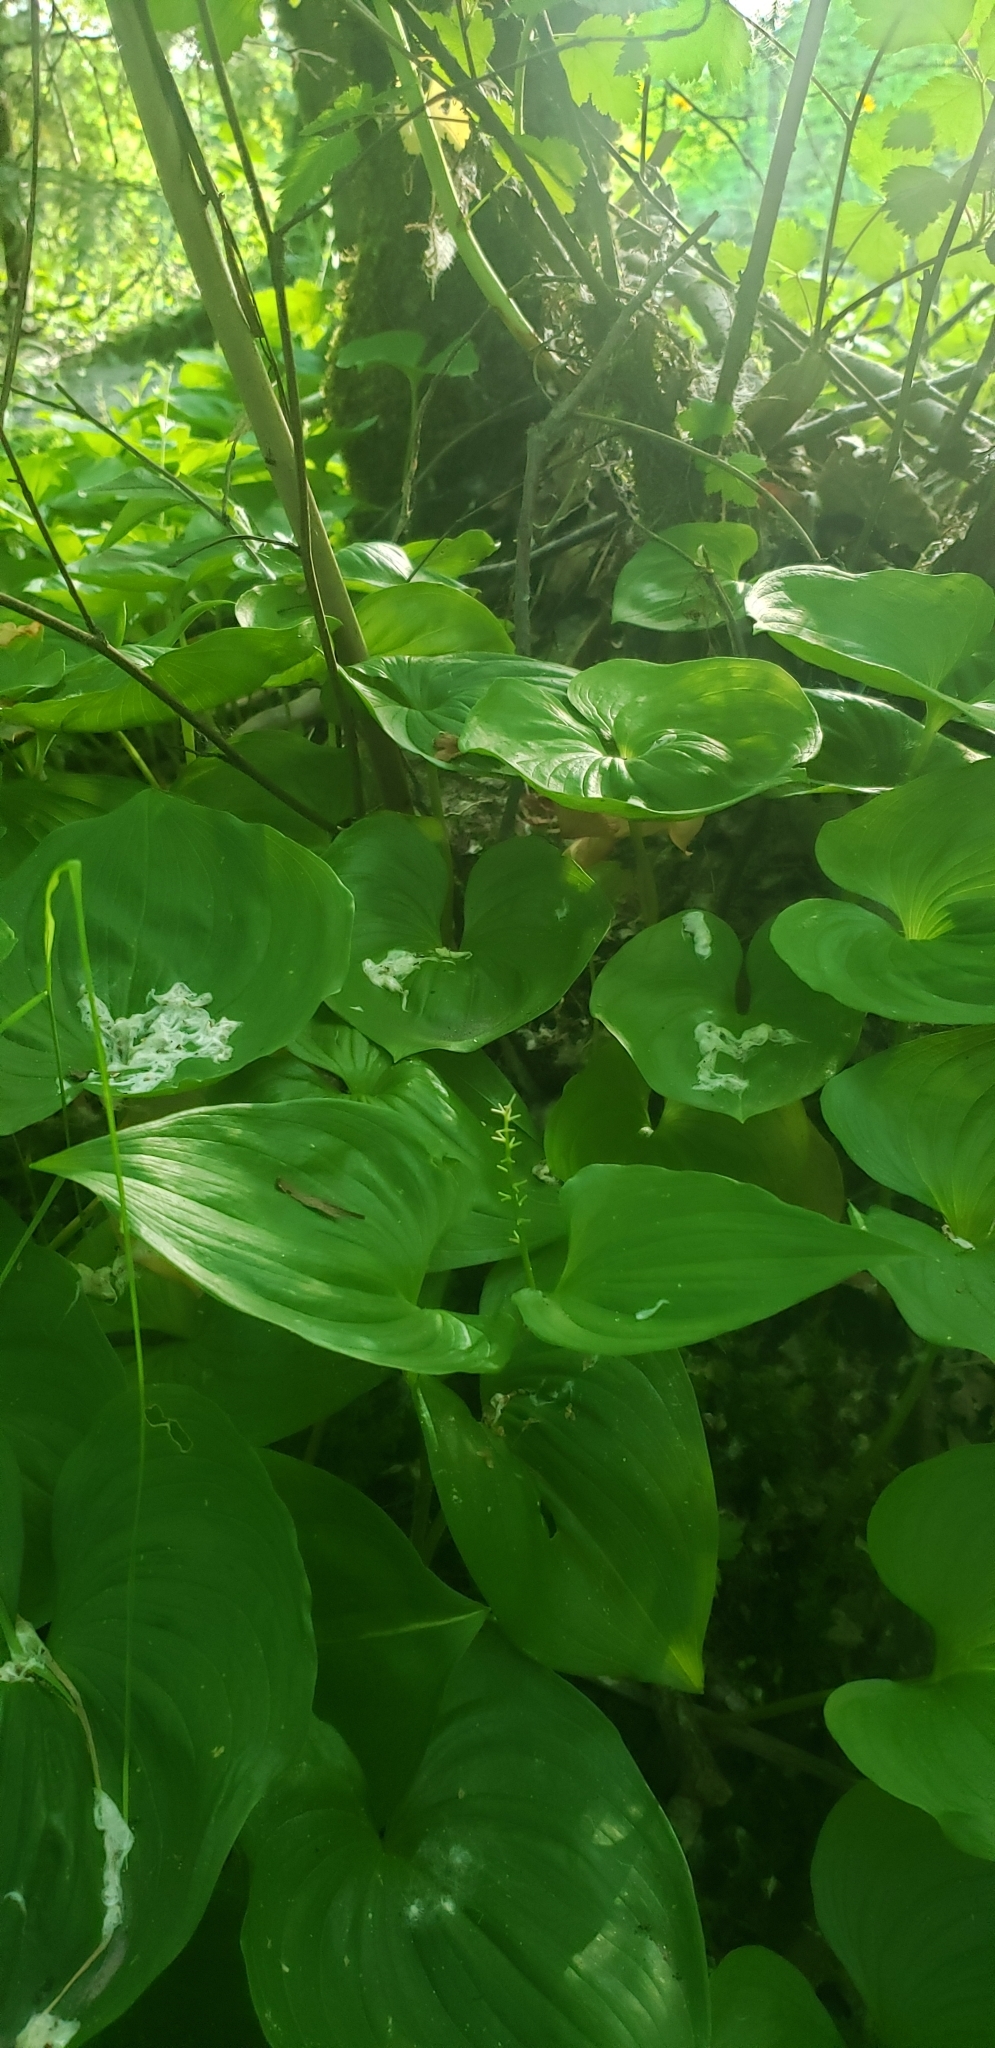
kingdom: Plantae
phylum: Tracheophyta
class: Liliopsida
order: Asparagales
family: Asparagaceae
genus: Maianthemum
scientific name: Maianthemum dilatatum
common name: False lily-of-the-valley
